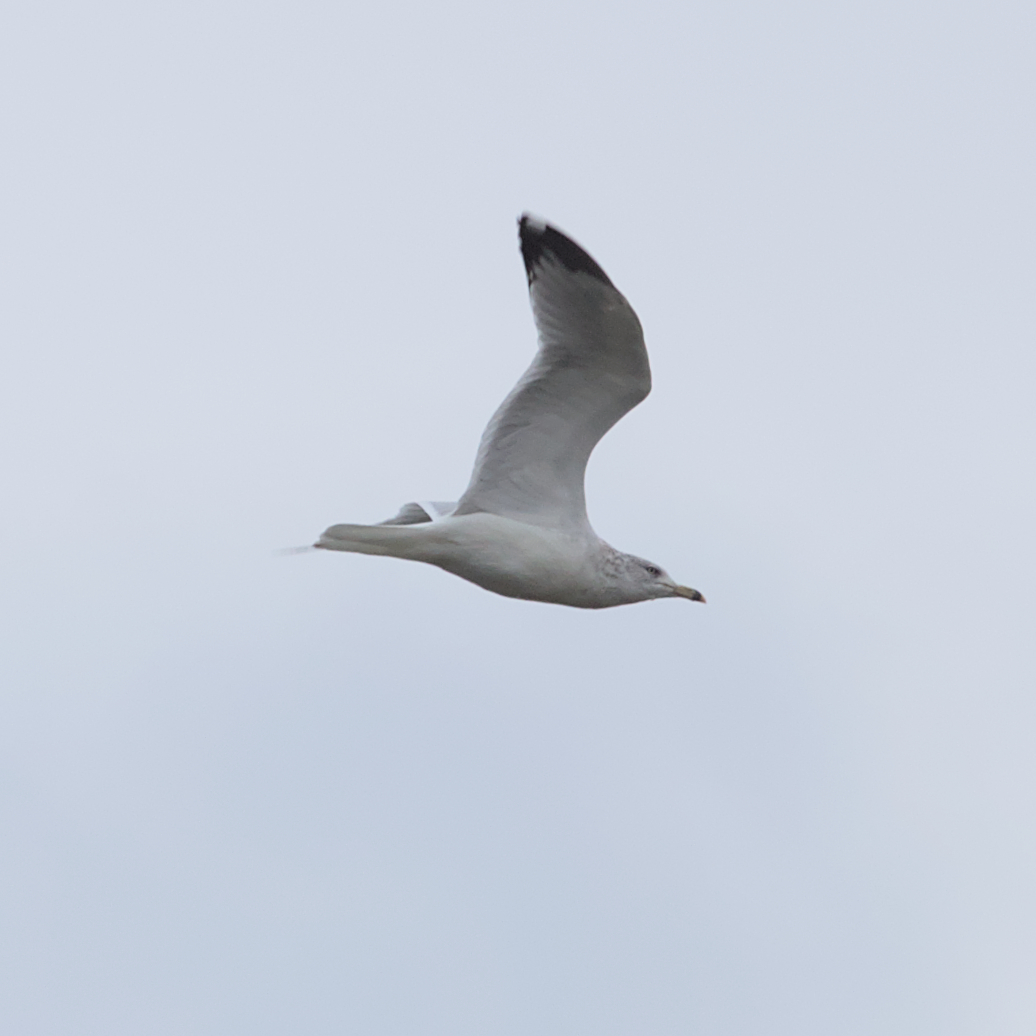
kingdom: Animalia
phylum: Chordata
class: Aves
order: Charadriiformes
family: Laridae
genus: Larus
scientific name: Larus delawarensis
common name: Ring-billed gull
